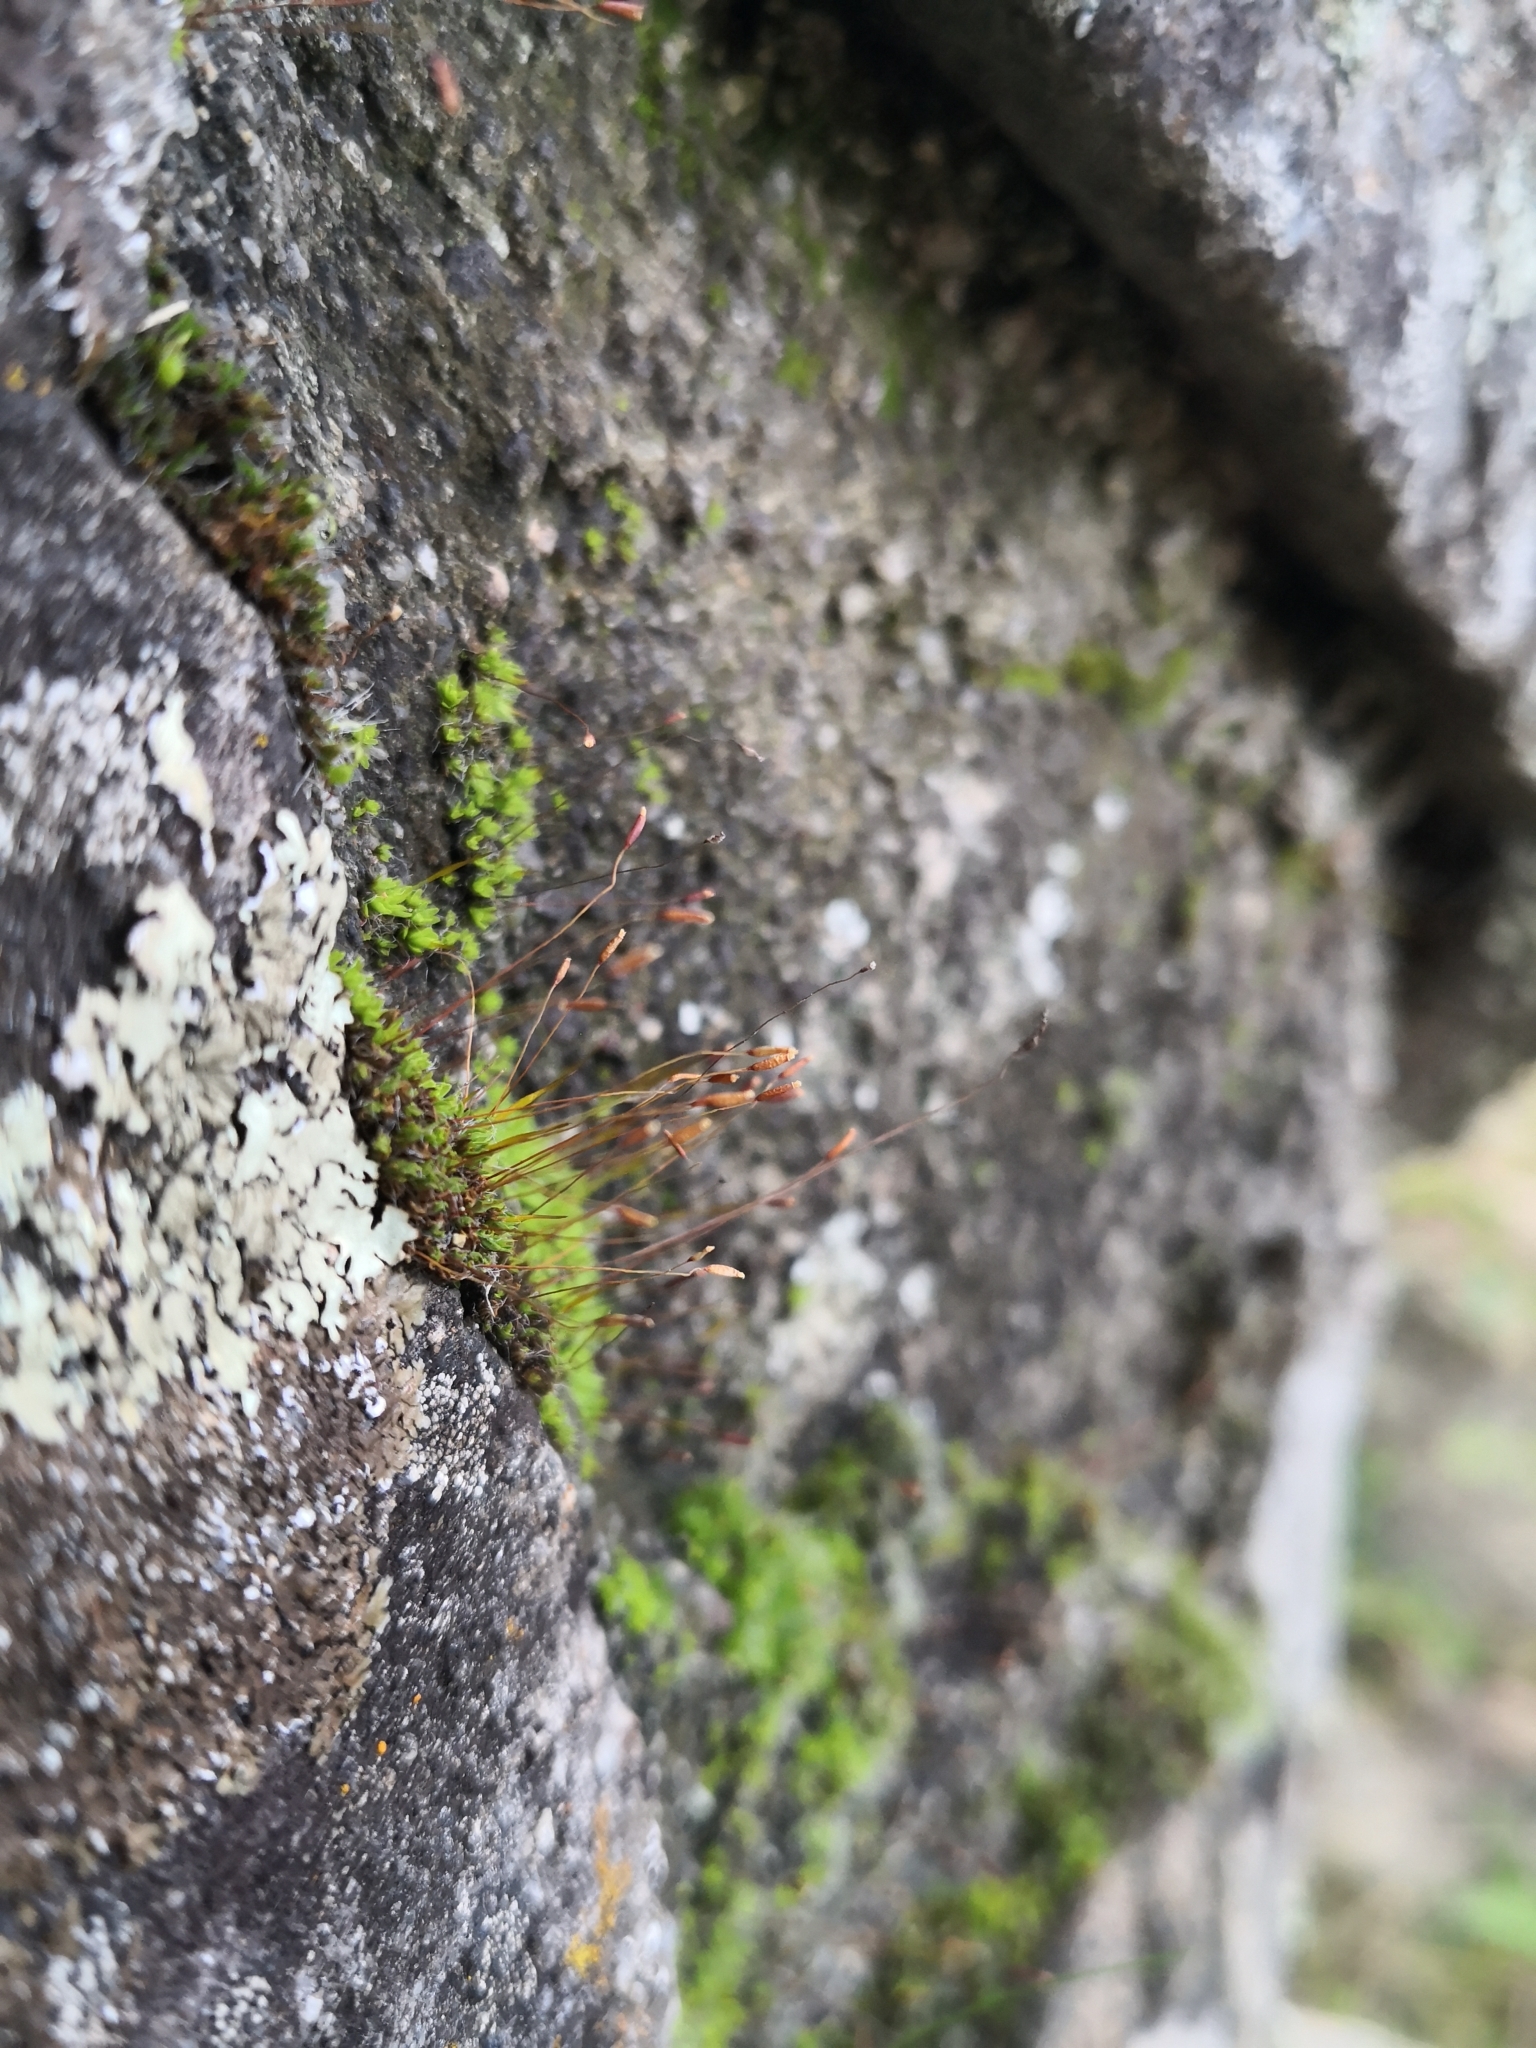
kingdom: Plantae
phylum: Bryophyta
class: Bryopsida
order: Pottiales
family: Pottiaceae
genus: Tortula
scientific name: Tortula muralis
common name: Wall screw-moss
